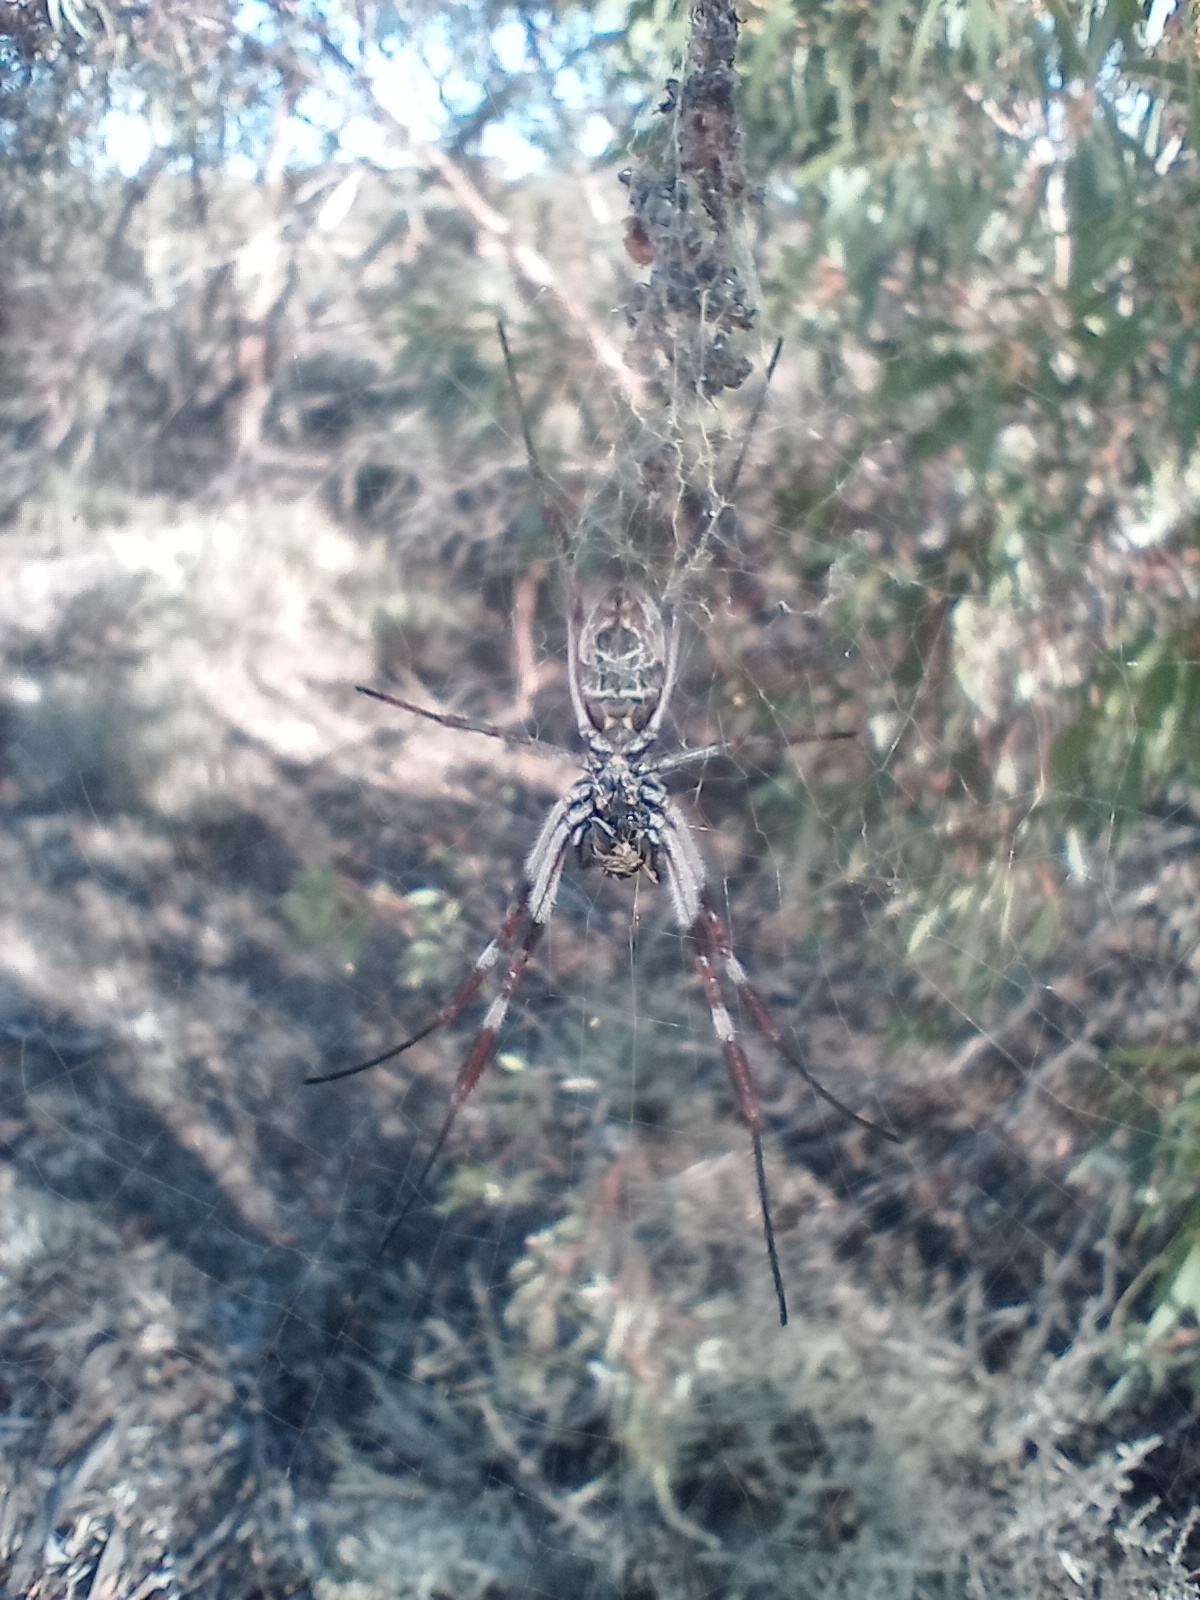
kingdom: Animalia
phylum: Arthropoda
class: Arachnida
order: Araneae
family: Araneidae
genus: Trichonephila
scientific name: Trichonephila edulis
